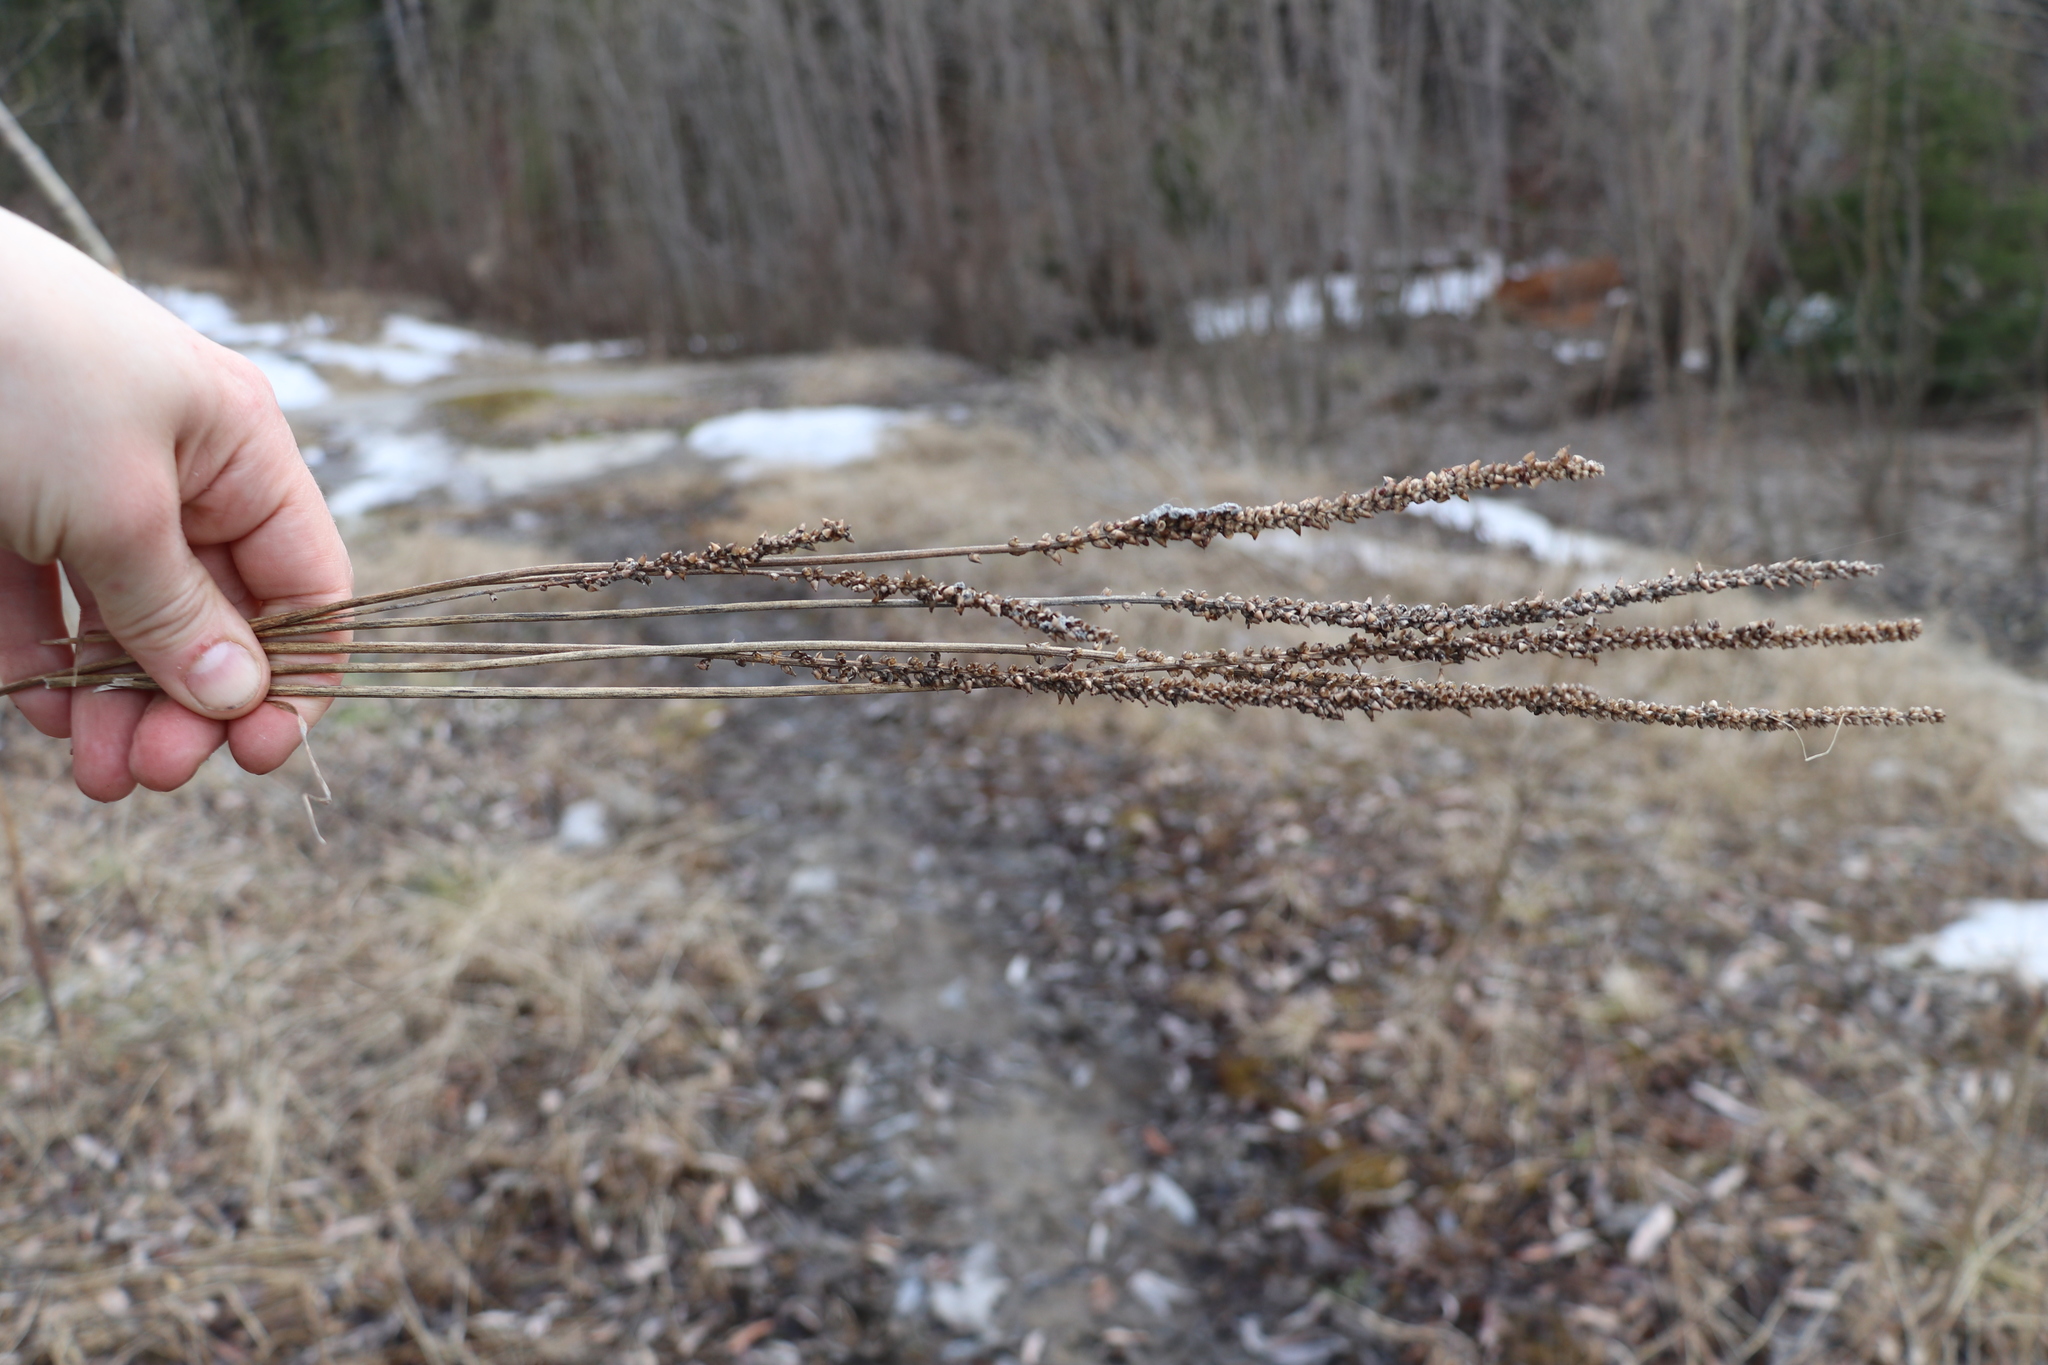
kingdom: Plantae
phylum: Tracheophyta
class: Magnoliopsida
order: Lamiales
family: Plantaginaceae
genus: Plantago
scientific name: Plantago major
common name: Common plantain
